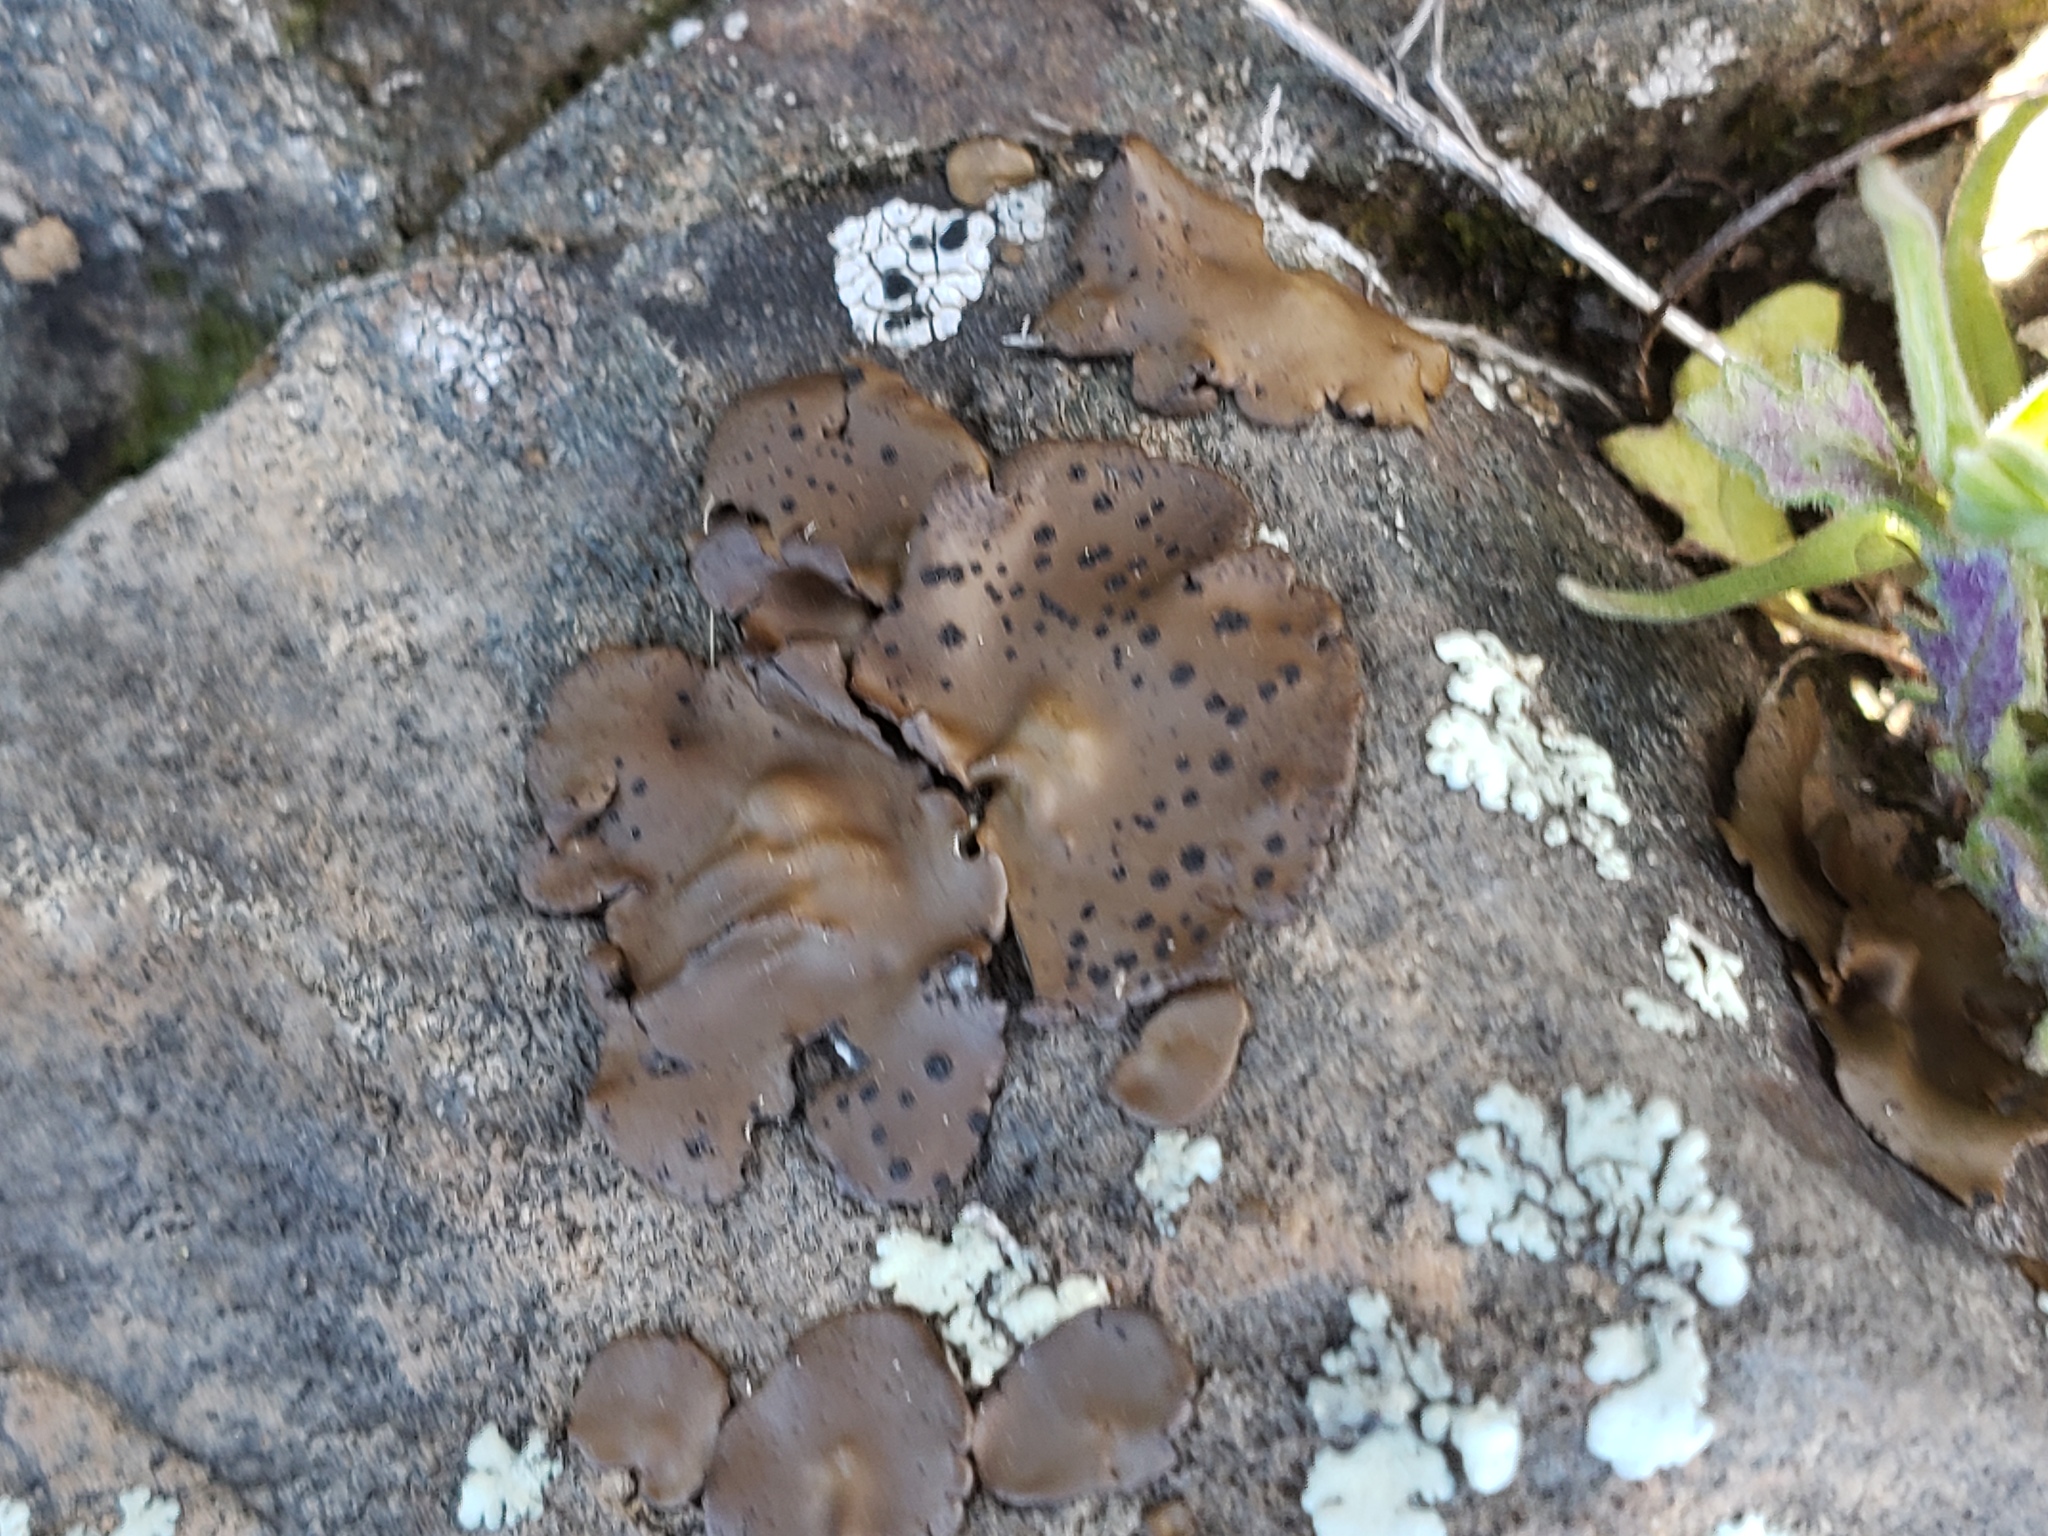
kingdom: Fungi
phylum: Ascomycota
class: Lecanoromycetes
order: Umbilicariales
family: Umbilicariaceae
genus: Umbilicaria
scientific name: Umbilicaria phaea
